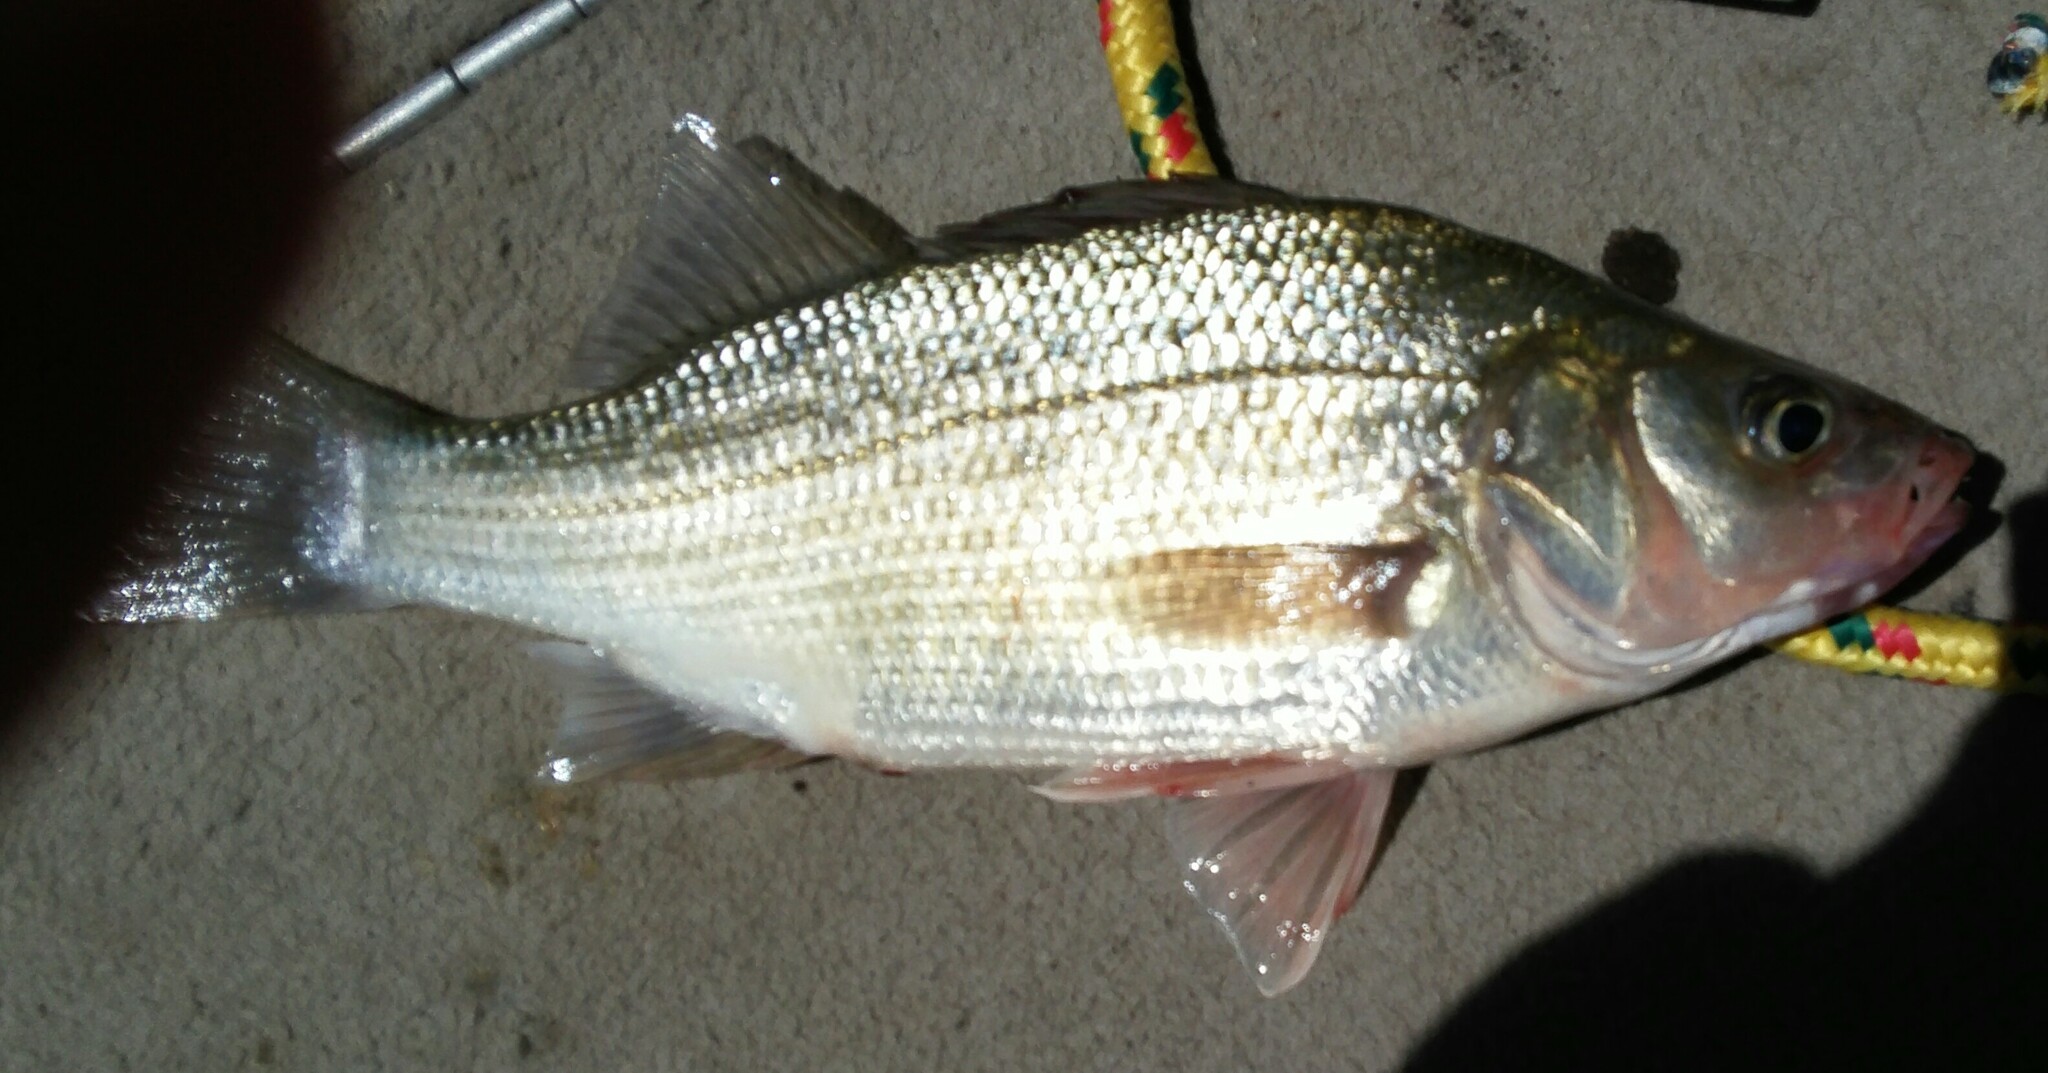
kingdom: Animalia
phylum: Chordata
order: Perciformes
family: Moronidae
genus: Morone
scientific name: Morone americana
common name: White perch
